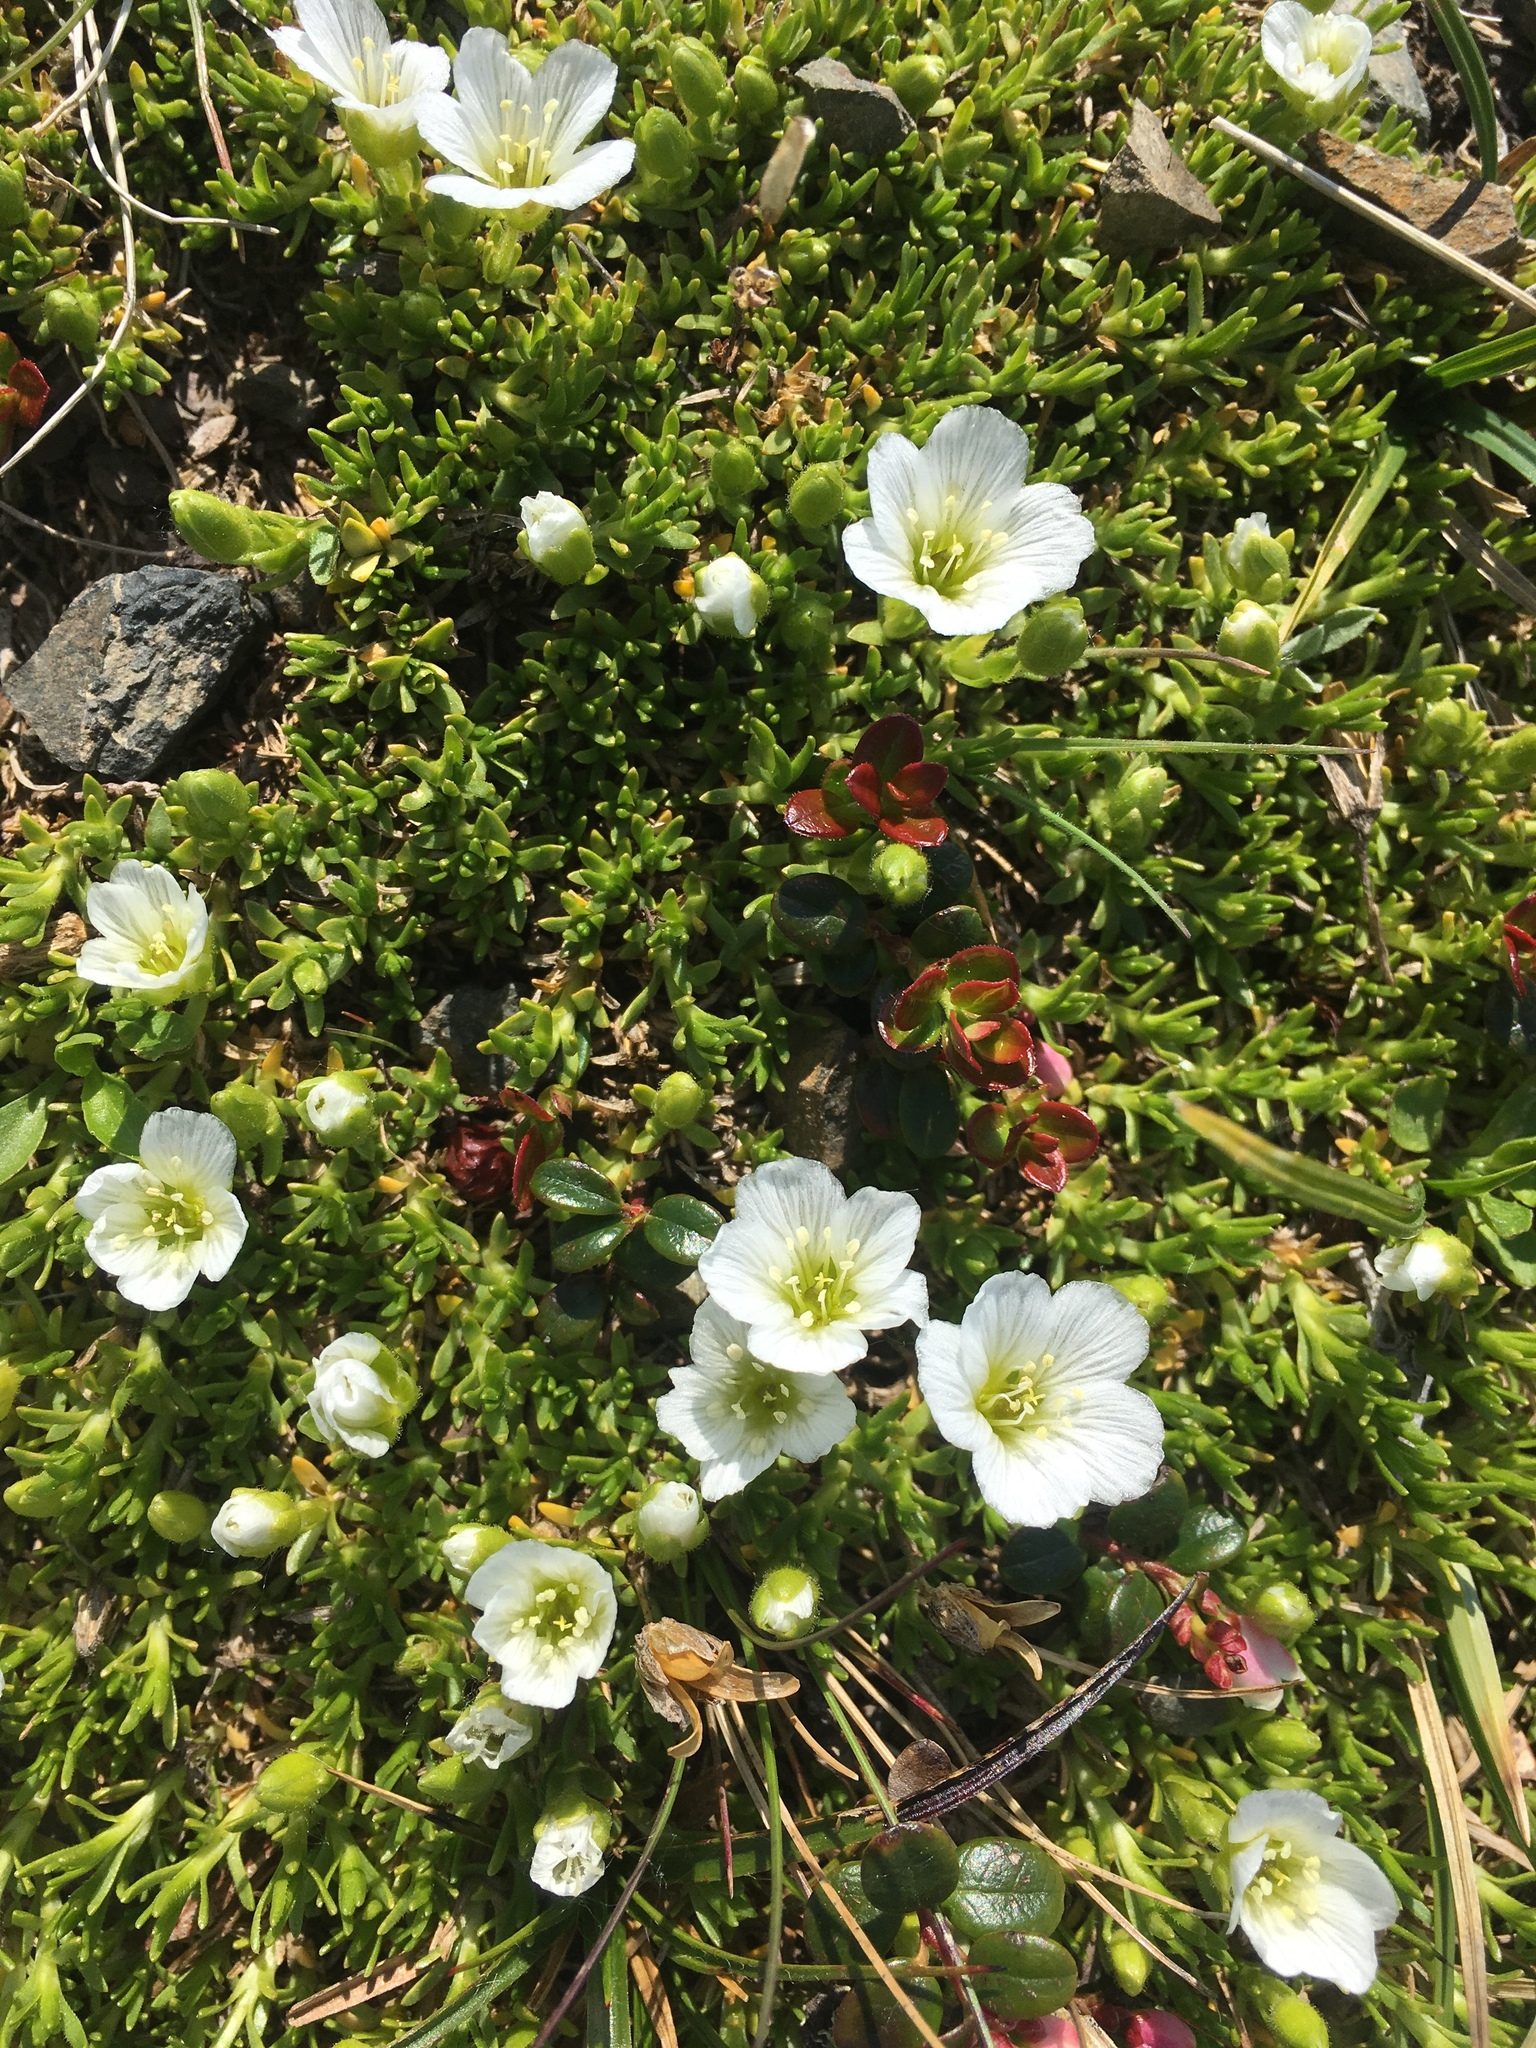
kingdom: Plantae
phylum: Tracheophyta
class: Magnoliopsida
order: Caryophyllales
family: Caryophyllaceae
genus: Pseudocherleria
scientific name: Pseudocherleria macrocarpa
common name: Large-fruit sandwort
